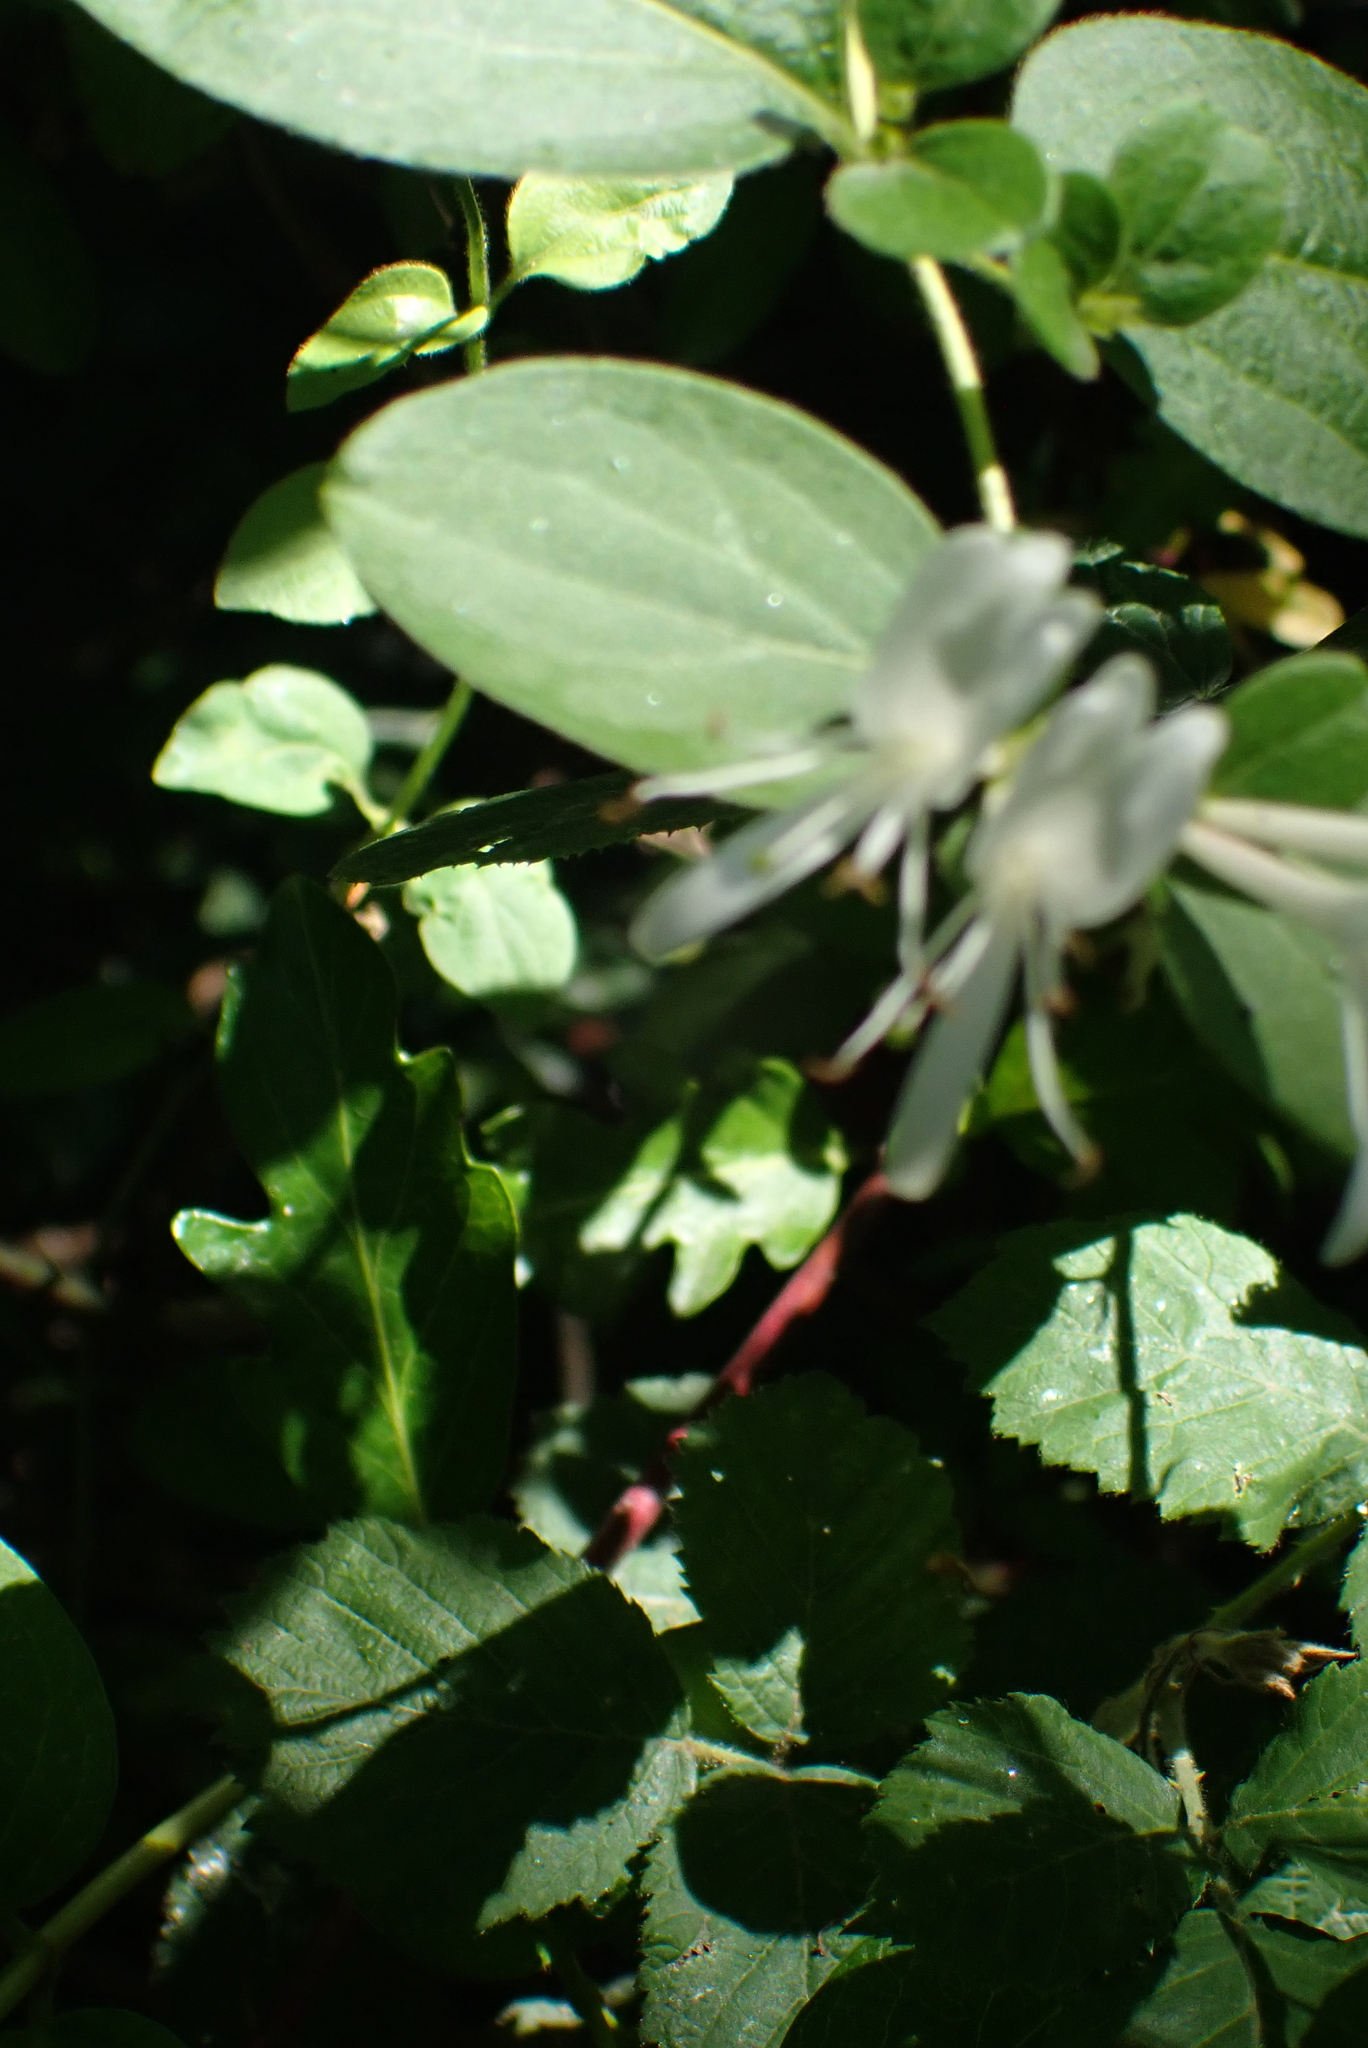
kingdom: Plantae
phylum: Tracheophyta
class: Magnoliopsida
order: Dipsacales
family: Caprifoliaceae
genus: Lonicera
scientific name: Lonicera japonica
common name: Japanese honeysuckle
